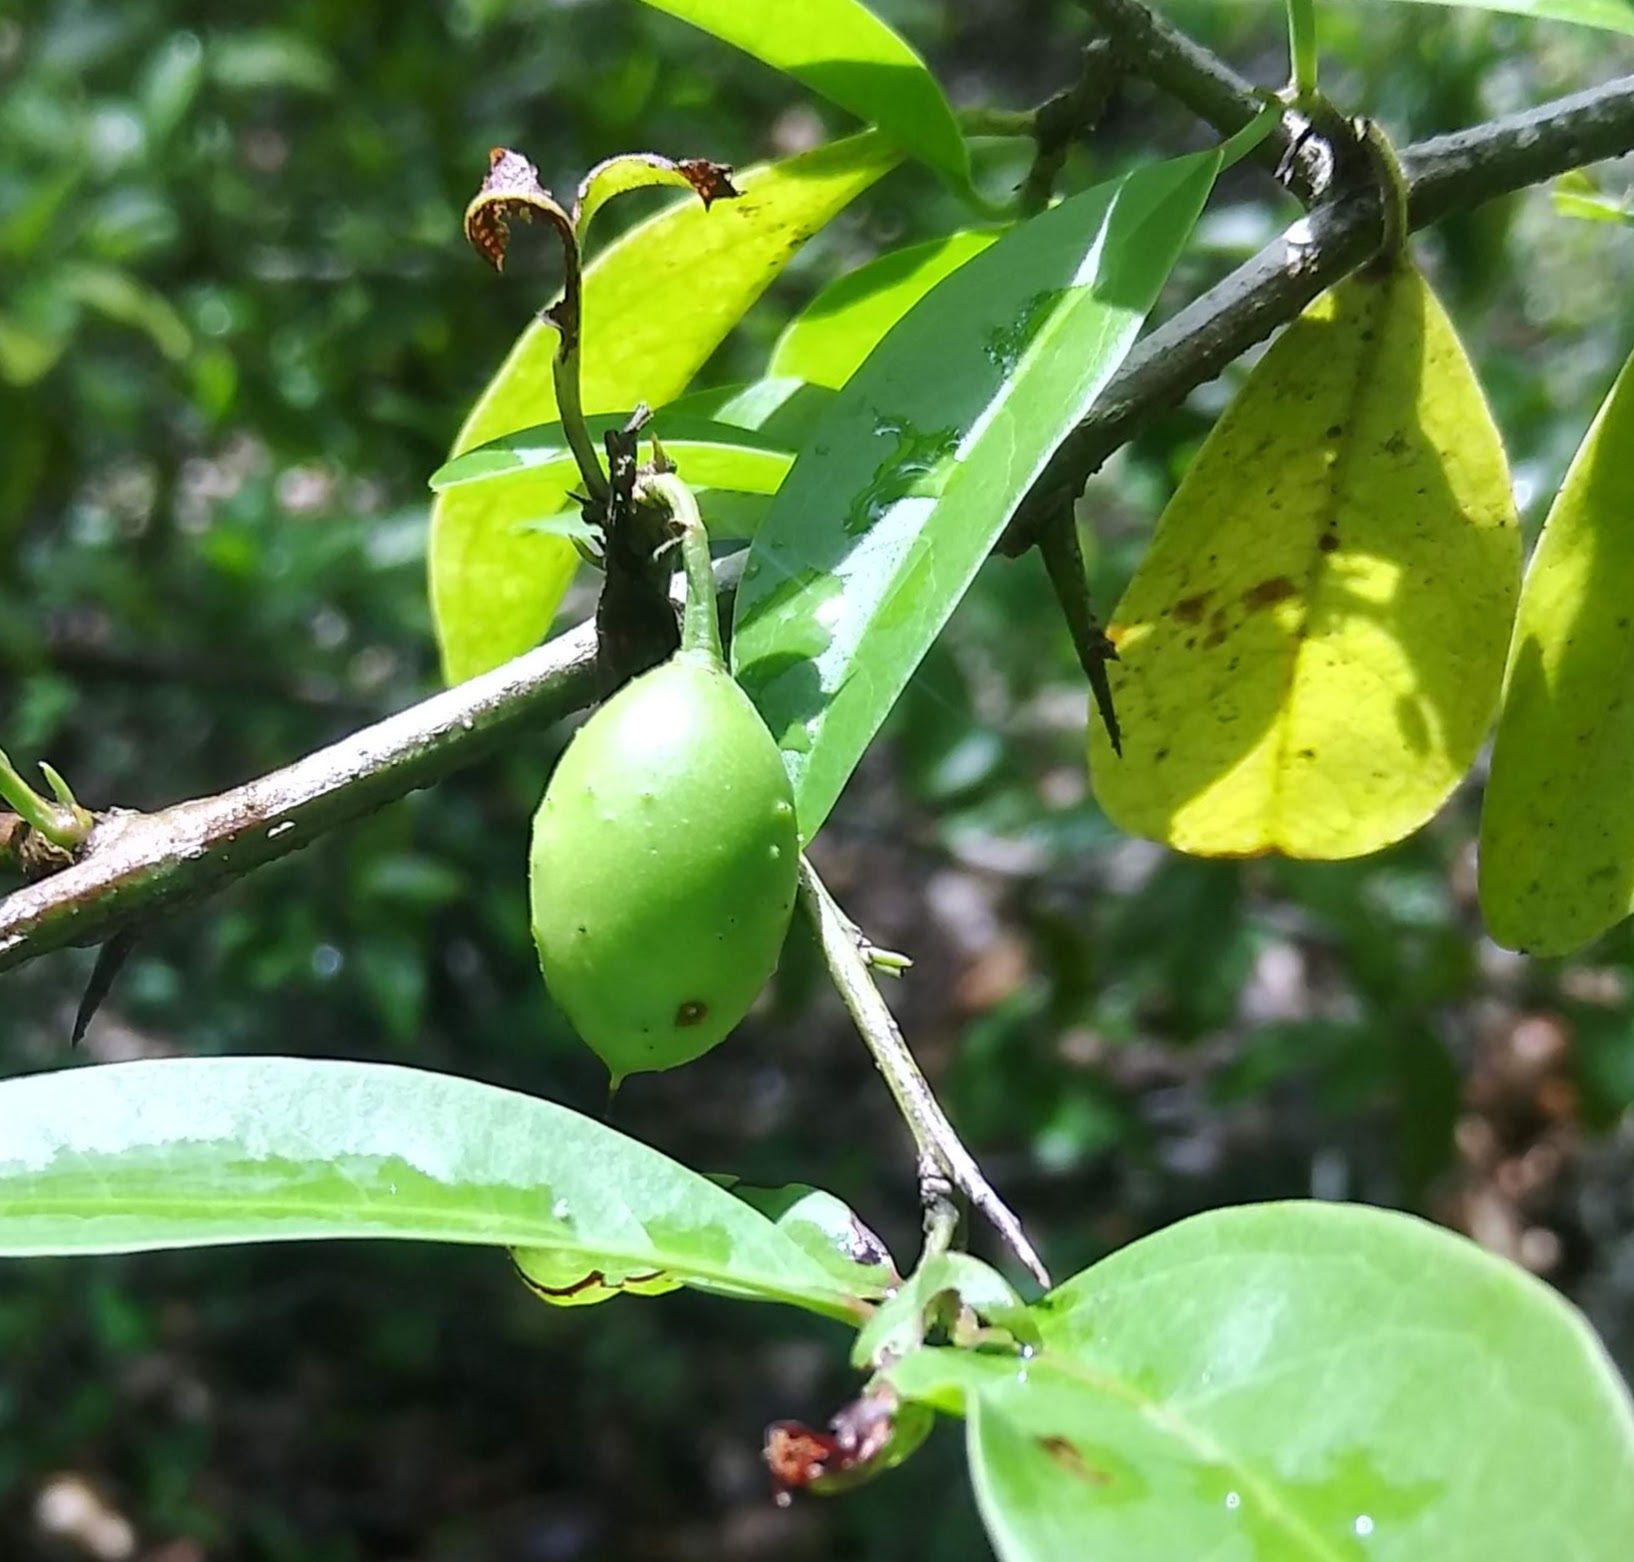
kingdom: Plantae
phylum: Tracheophyta
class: Magnoliopsida
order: Santalales
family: Ximeniaceae
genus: Ximenia
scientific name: Ximenia americana
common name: Tallowwood
